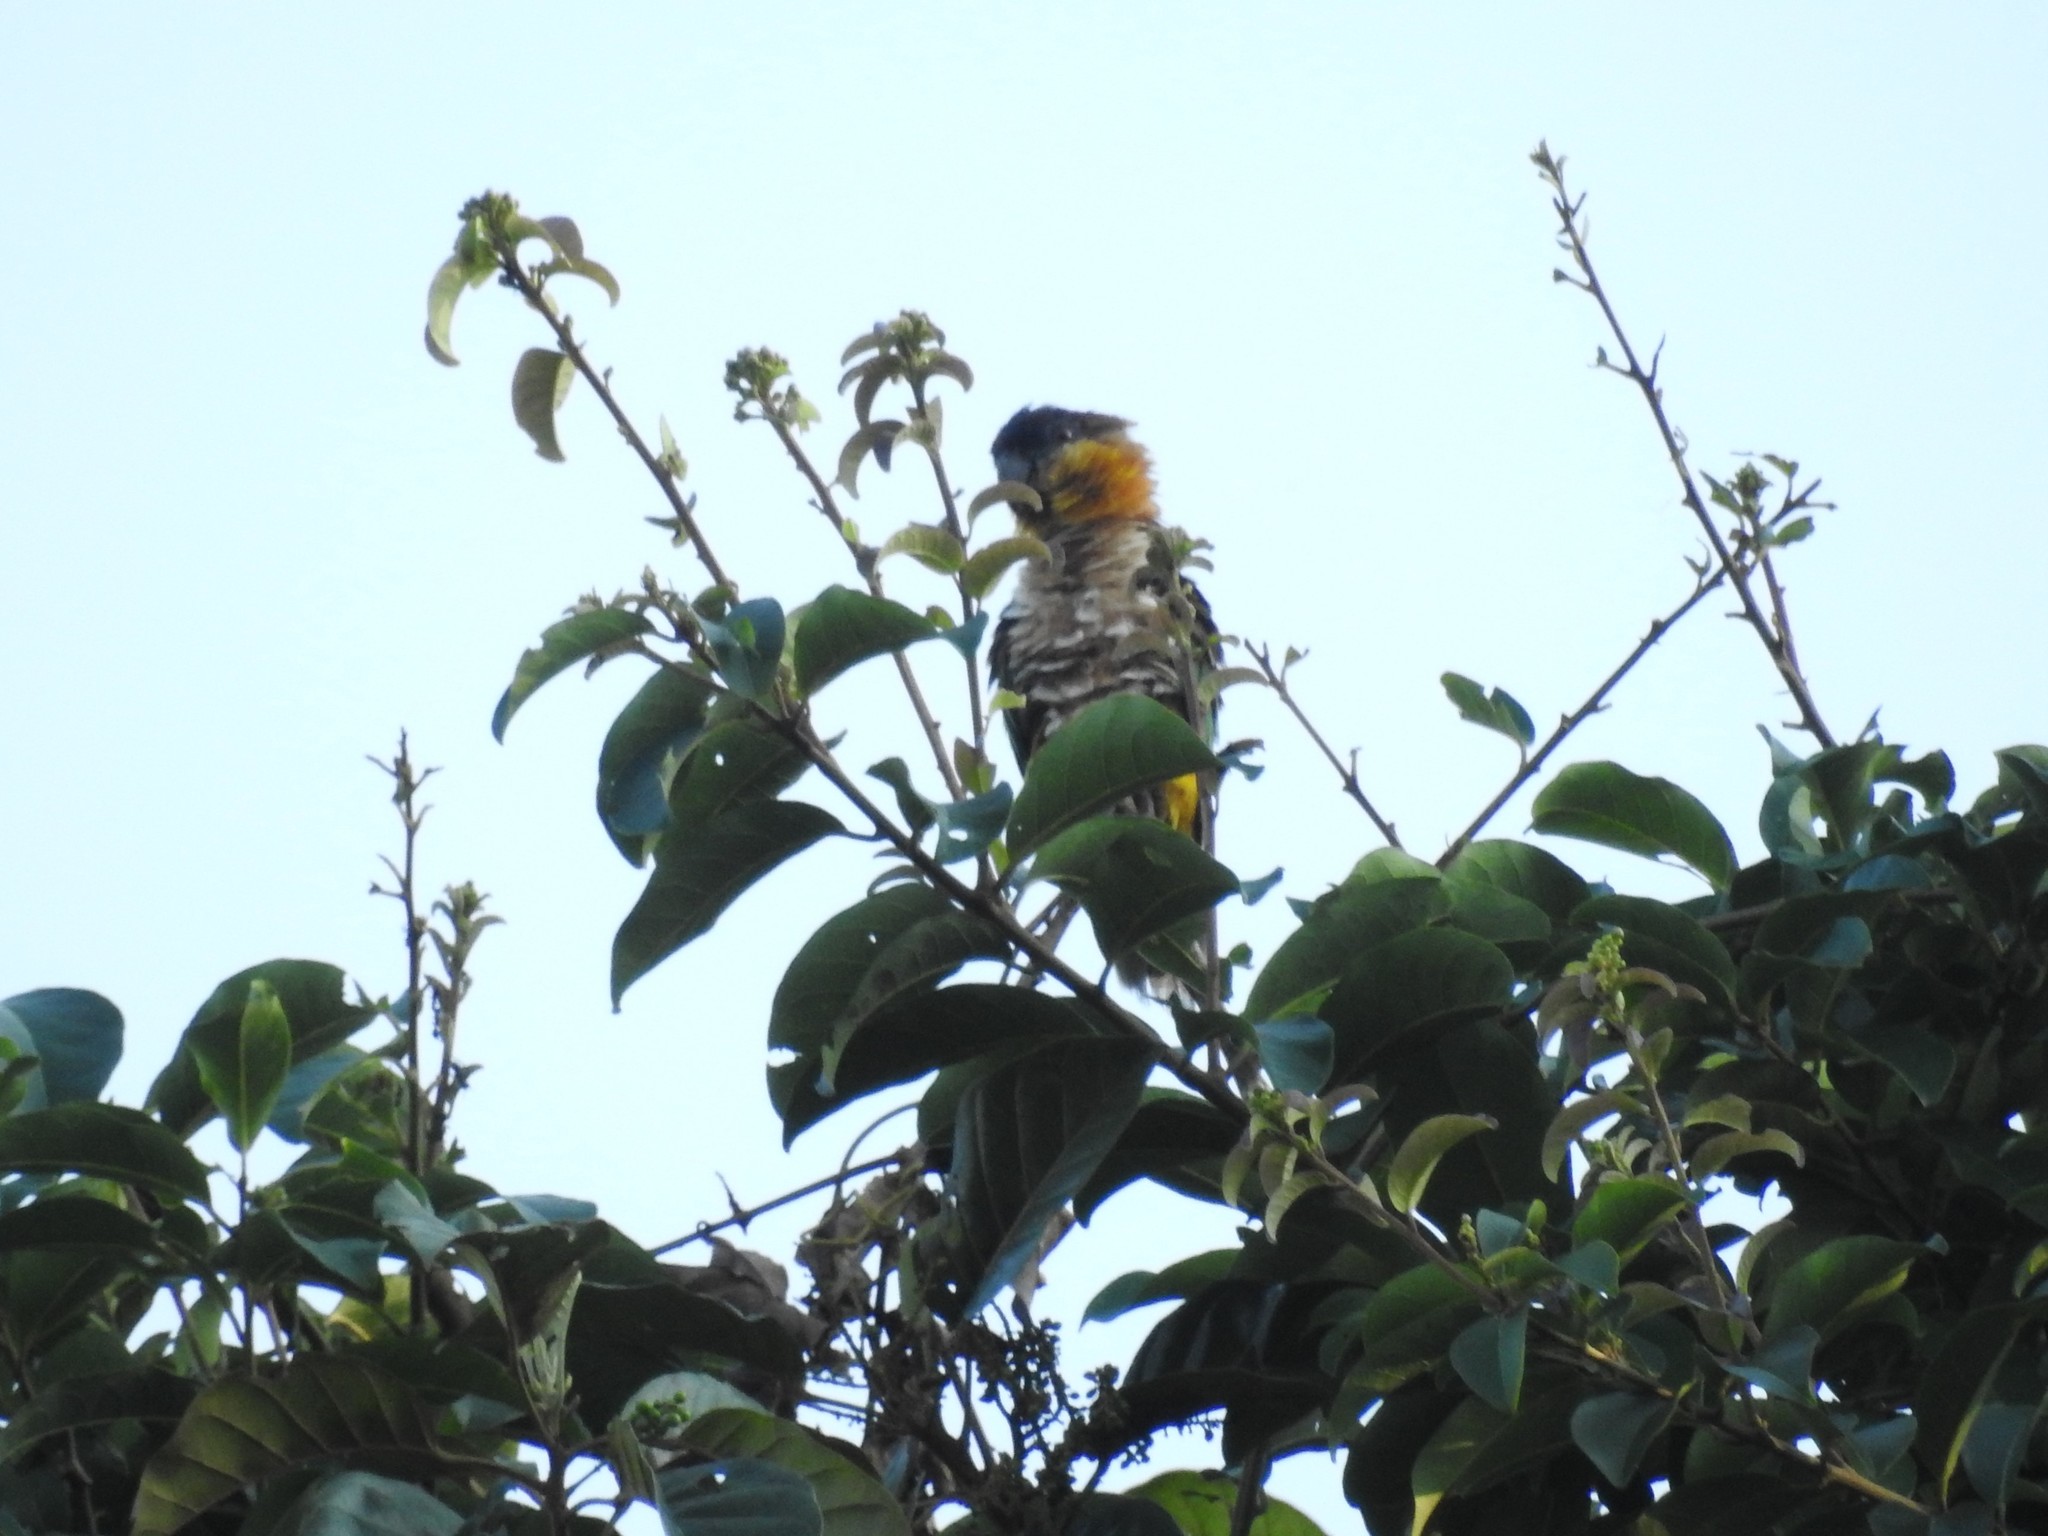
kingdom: Animalia
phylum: Chordata
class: Aves
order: Psittaciformes
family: Psittacidae
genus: Pionites
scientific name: Pionites melanocephalus
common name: Black-headed parrot
